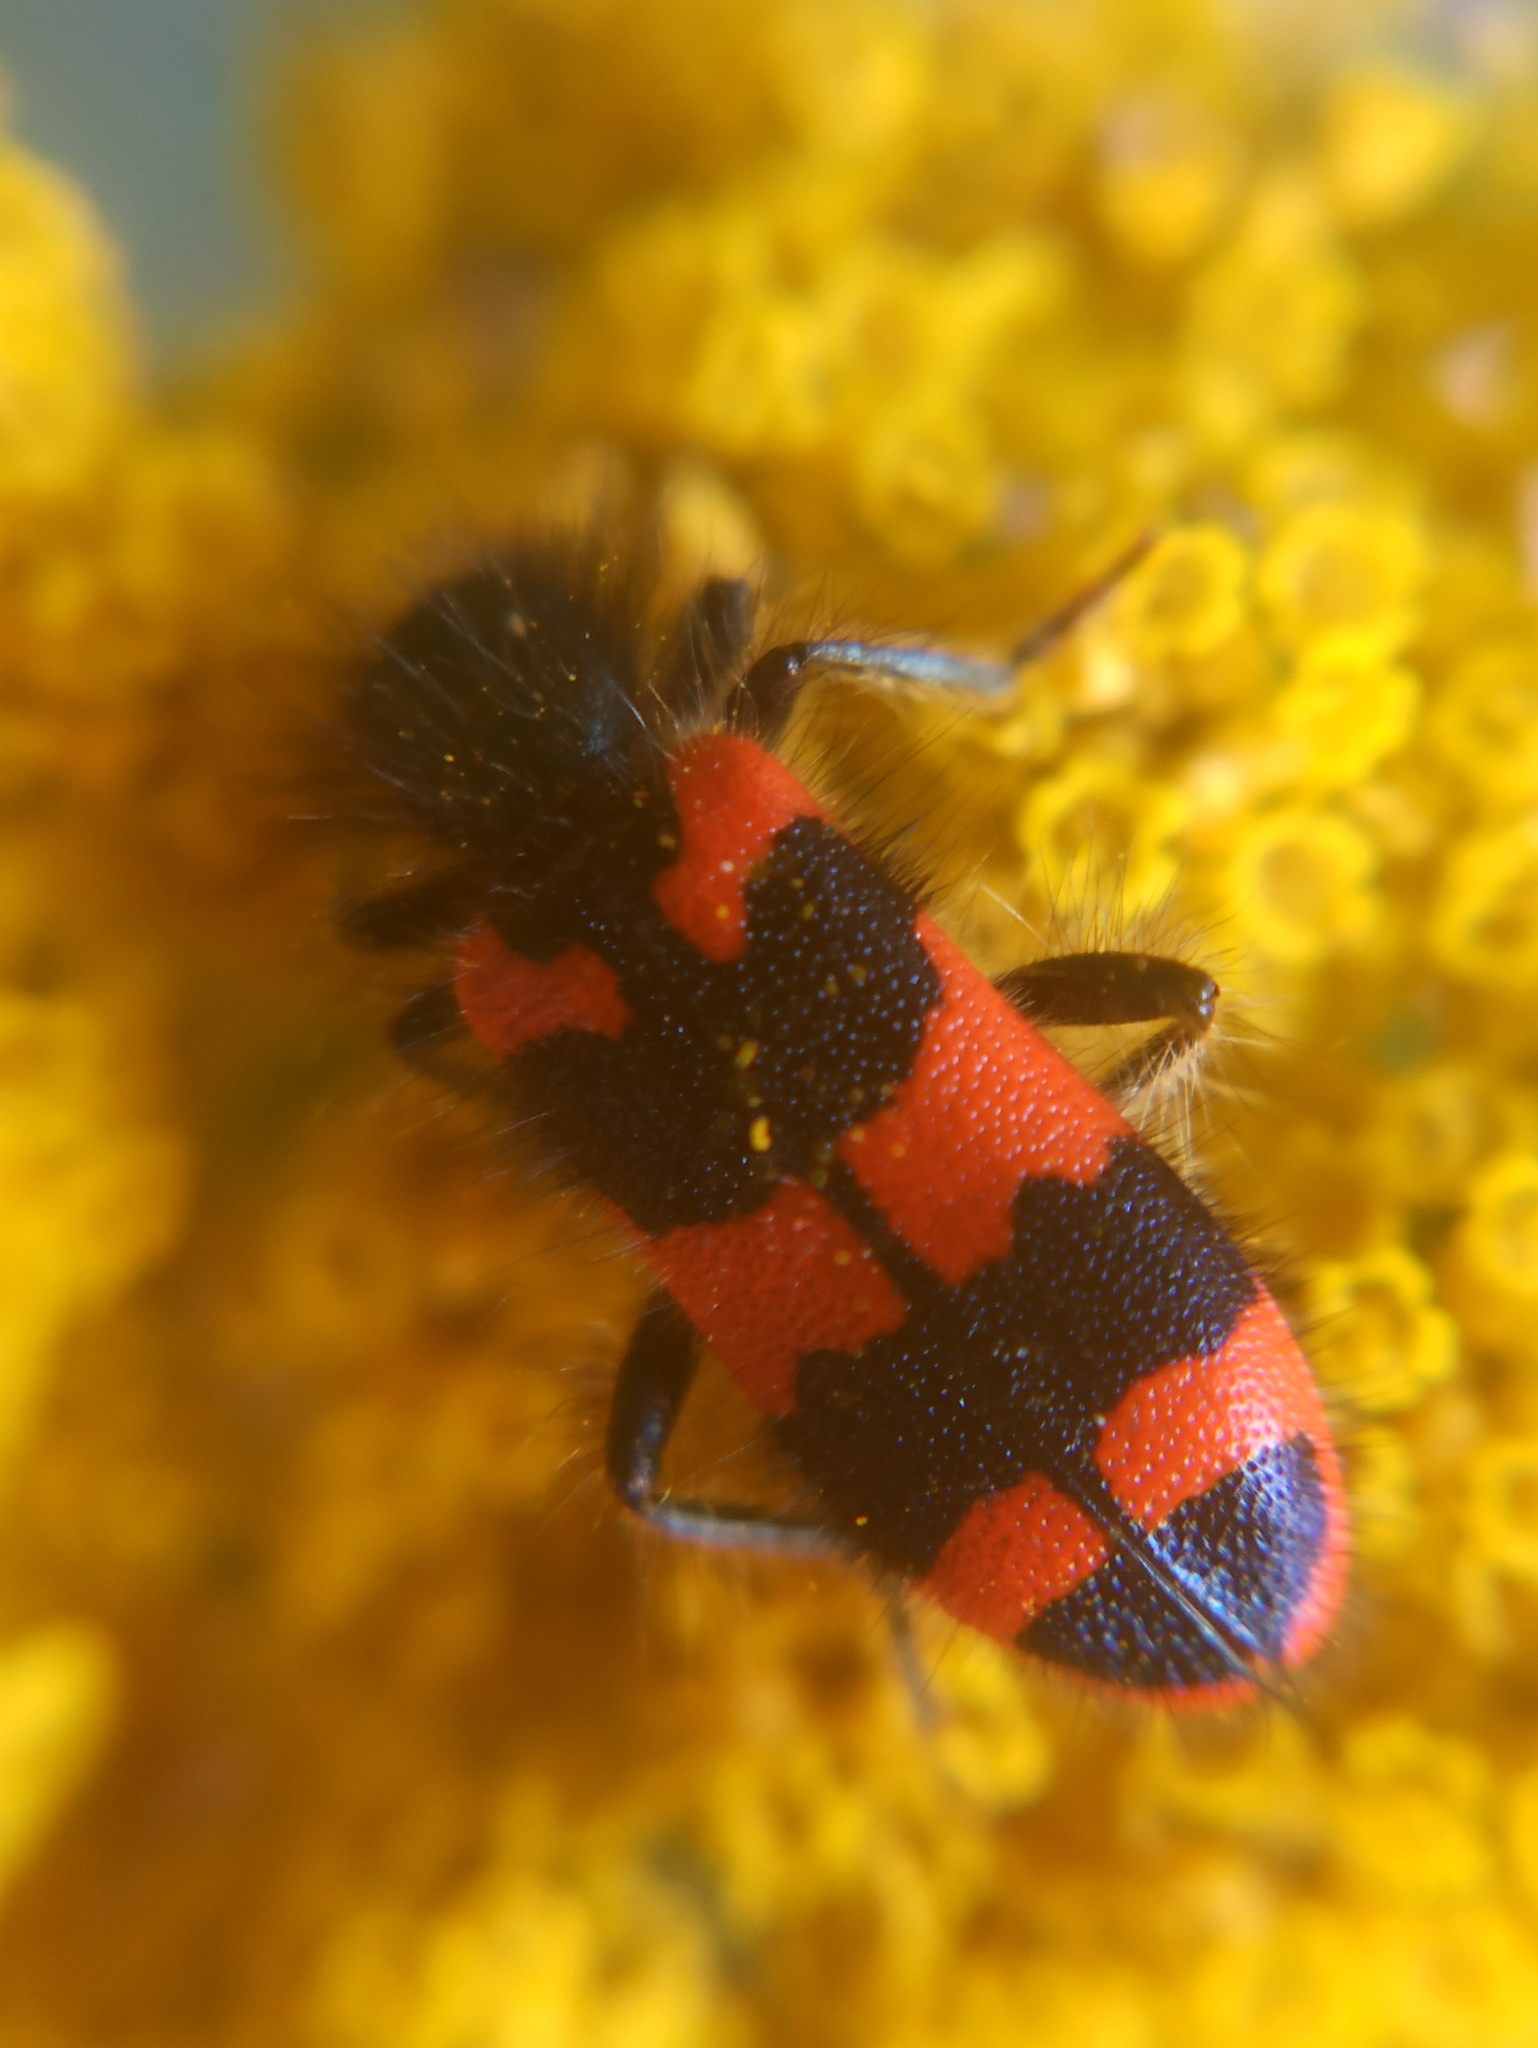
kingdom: Animalia
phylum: Arthropoda
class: Insecta
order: Coleoptera
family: Cleridae
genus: Trichodes
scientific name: Trichodes alvearius
